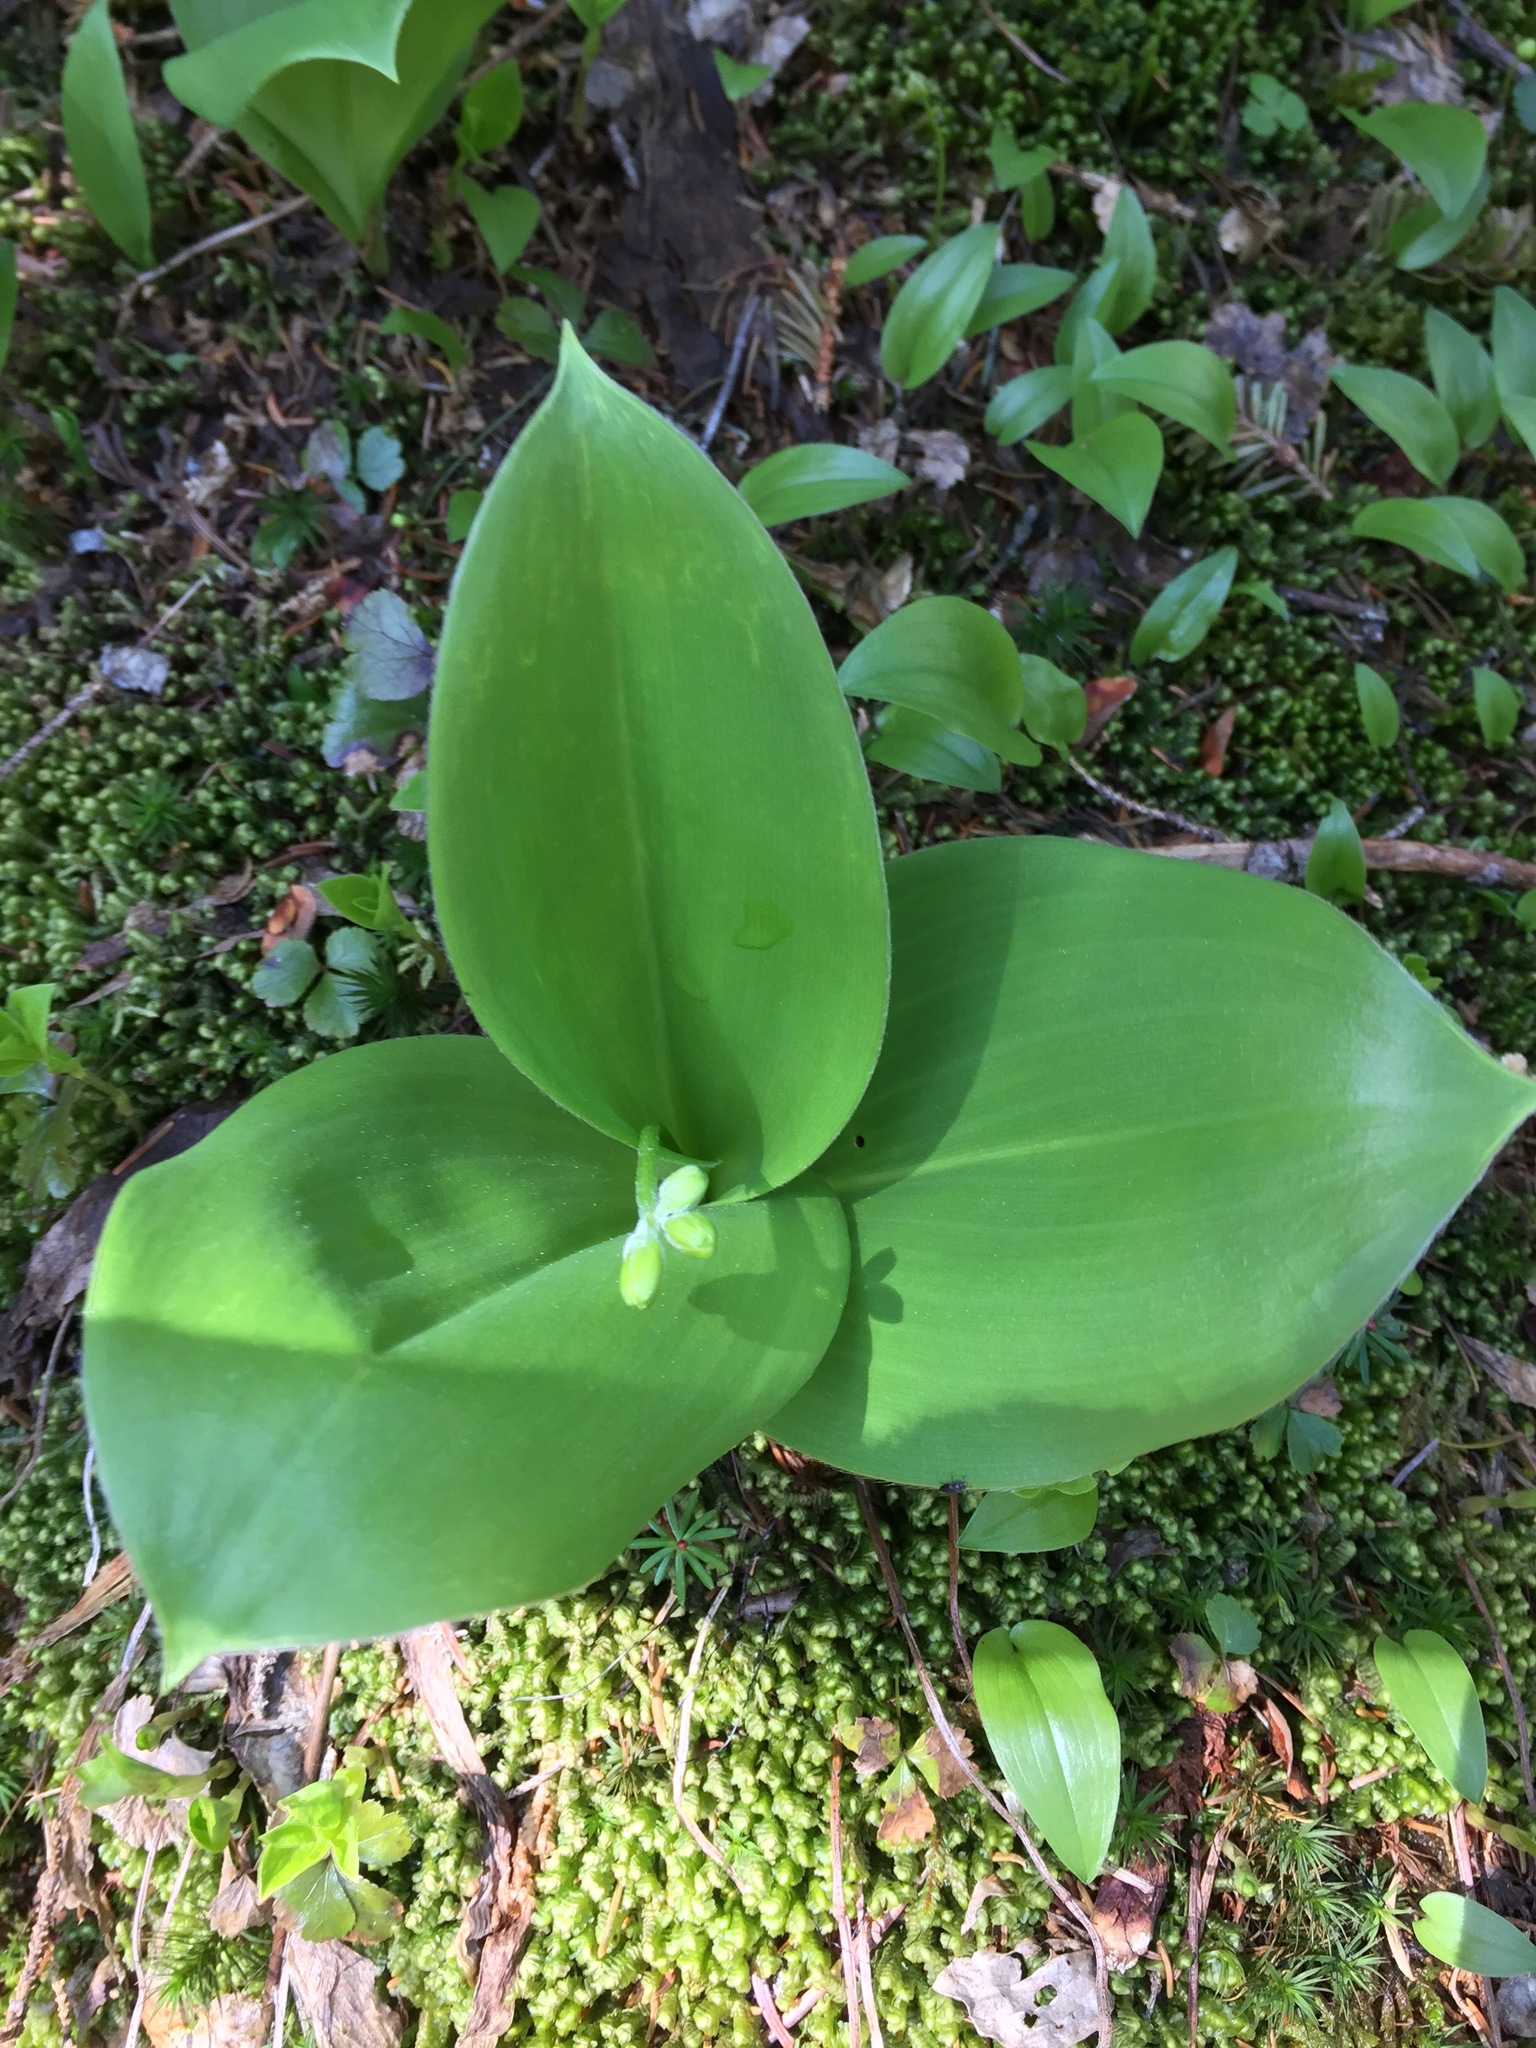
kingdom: Plantae
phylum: Tracheophyta
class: Liliopsida
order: Liliales
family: Liliaceae
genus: Clintonia
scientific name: Clintonia borealis
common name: Yellow clintonia
